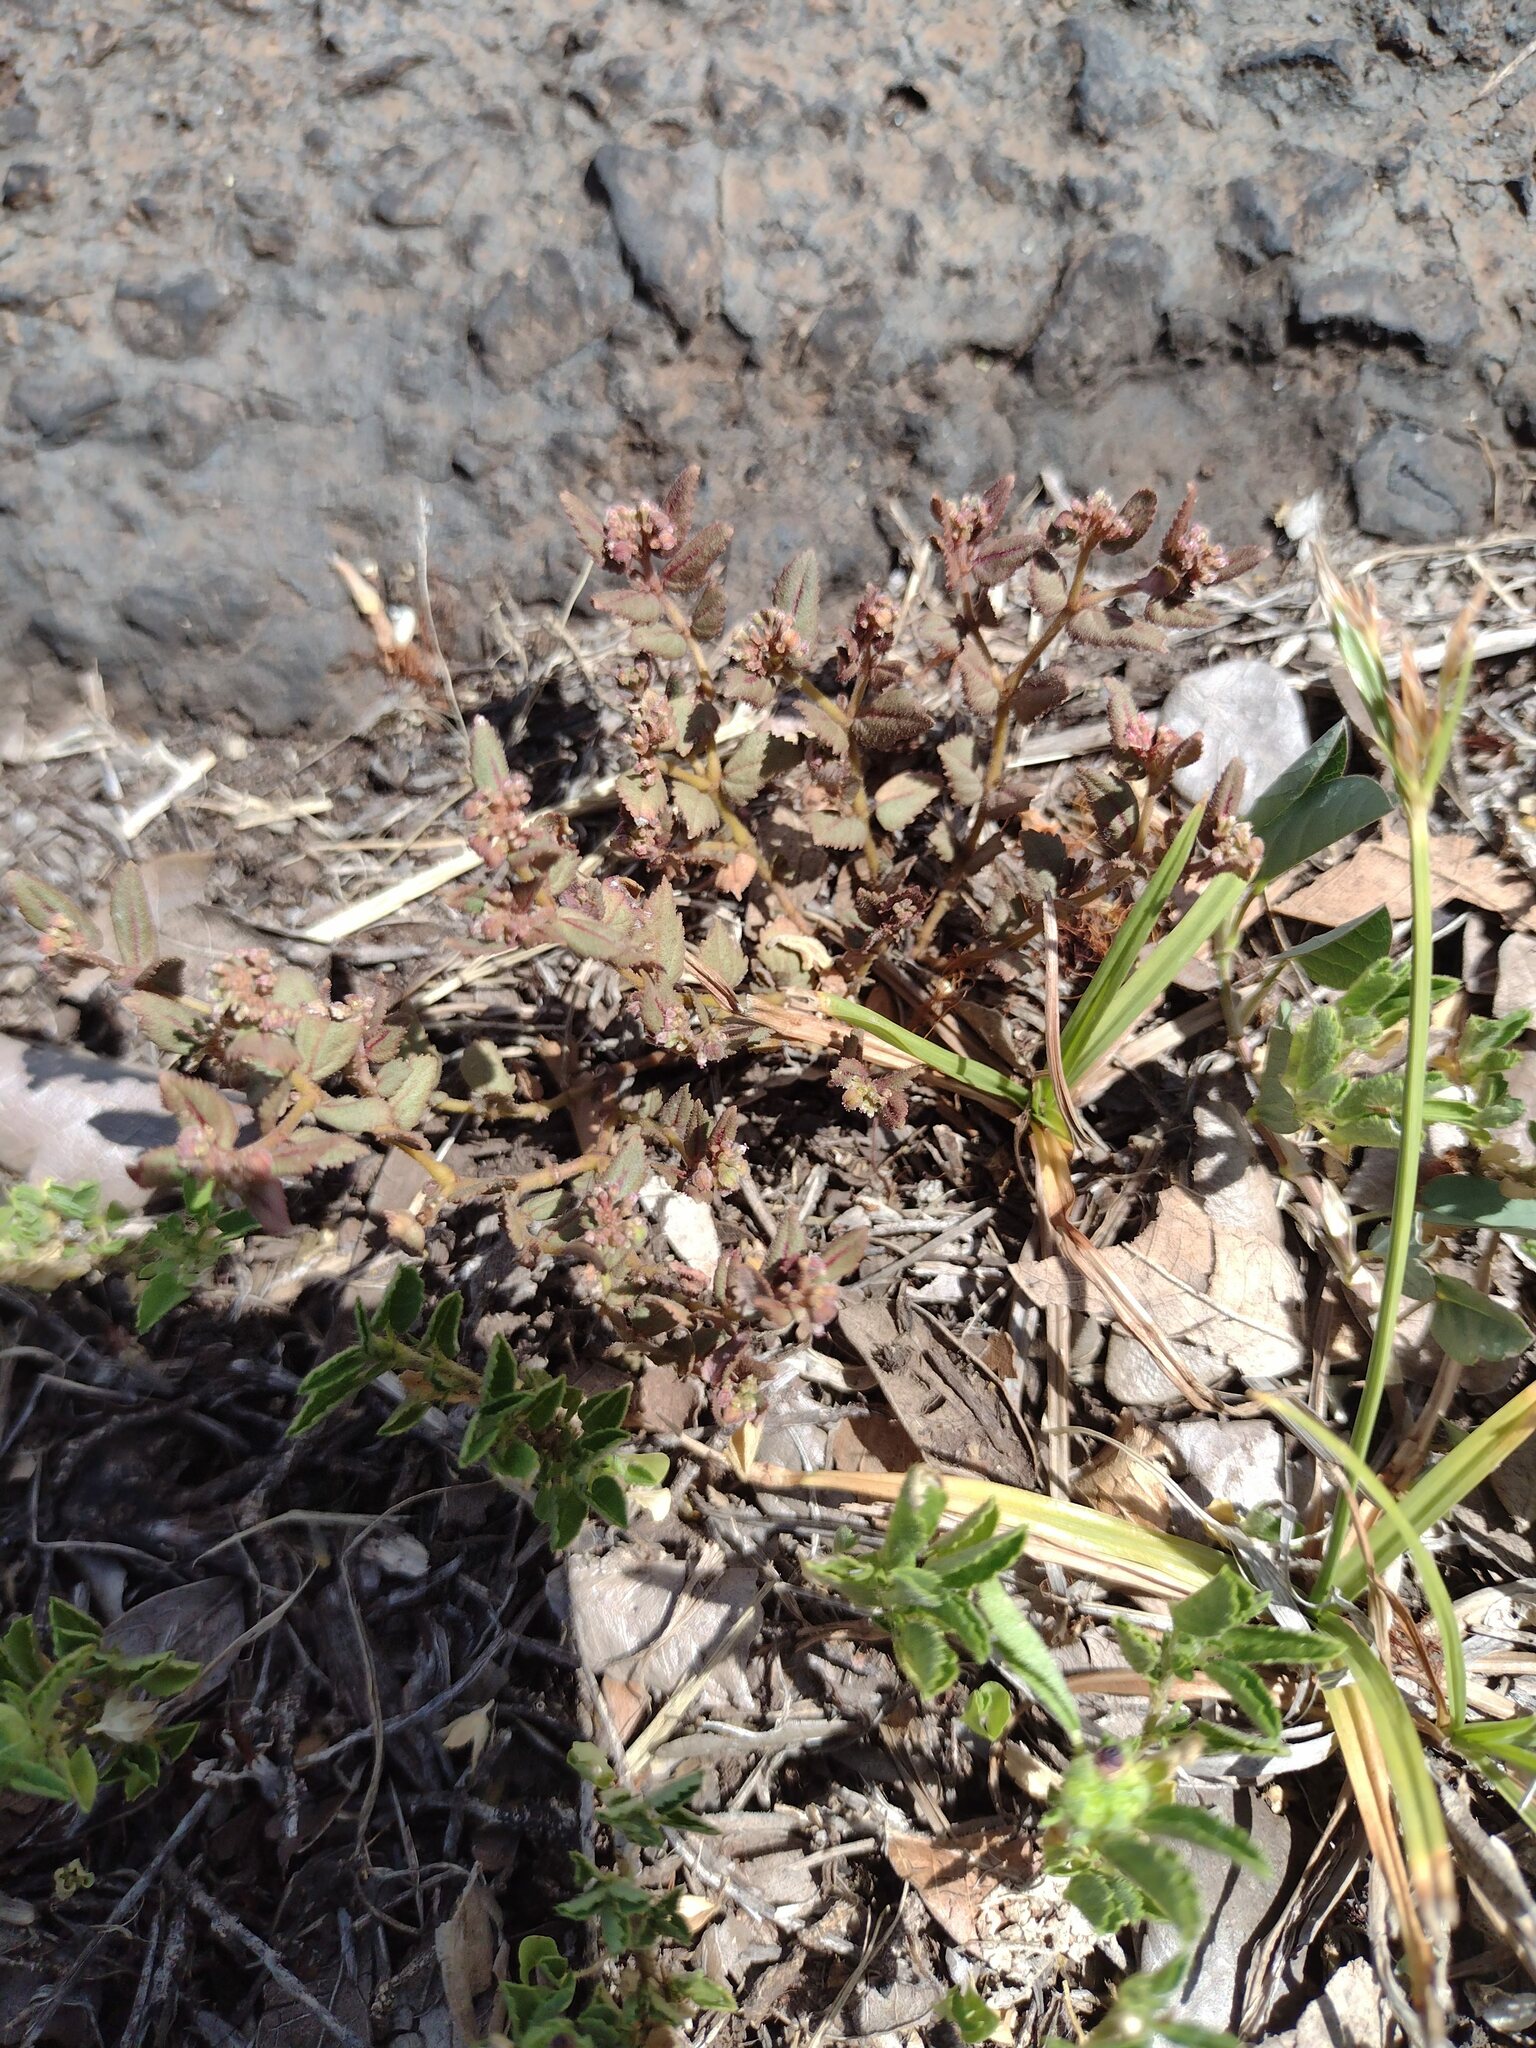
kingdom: Plantae
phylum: Tracheophyta
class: Magnoliopsida
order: Malpighiales
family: Euphorbiaceae
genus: Euphorbia
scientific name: Euphorbia ophthalmica
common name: Florida hammock sandmat
